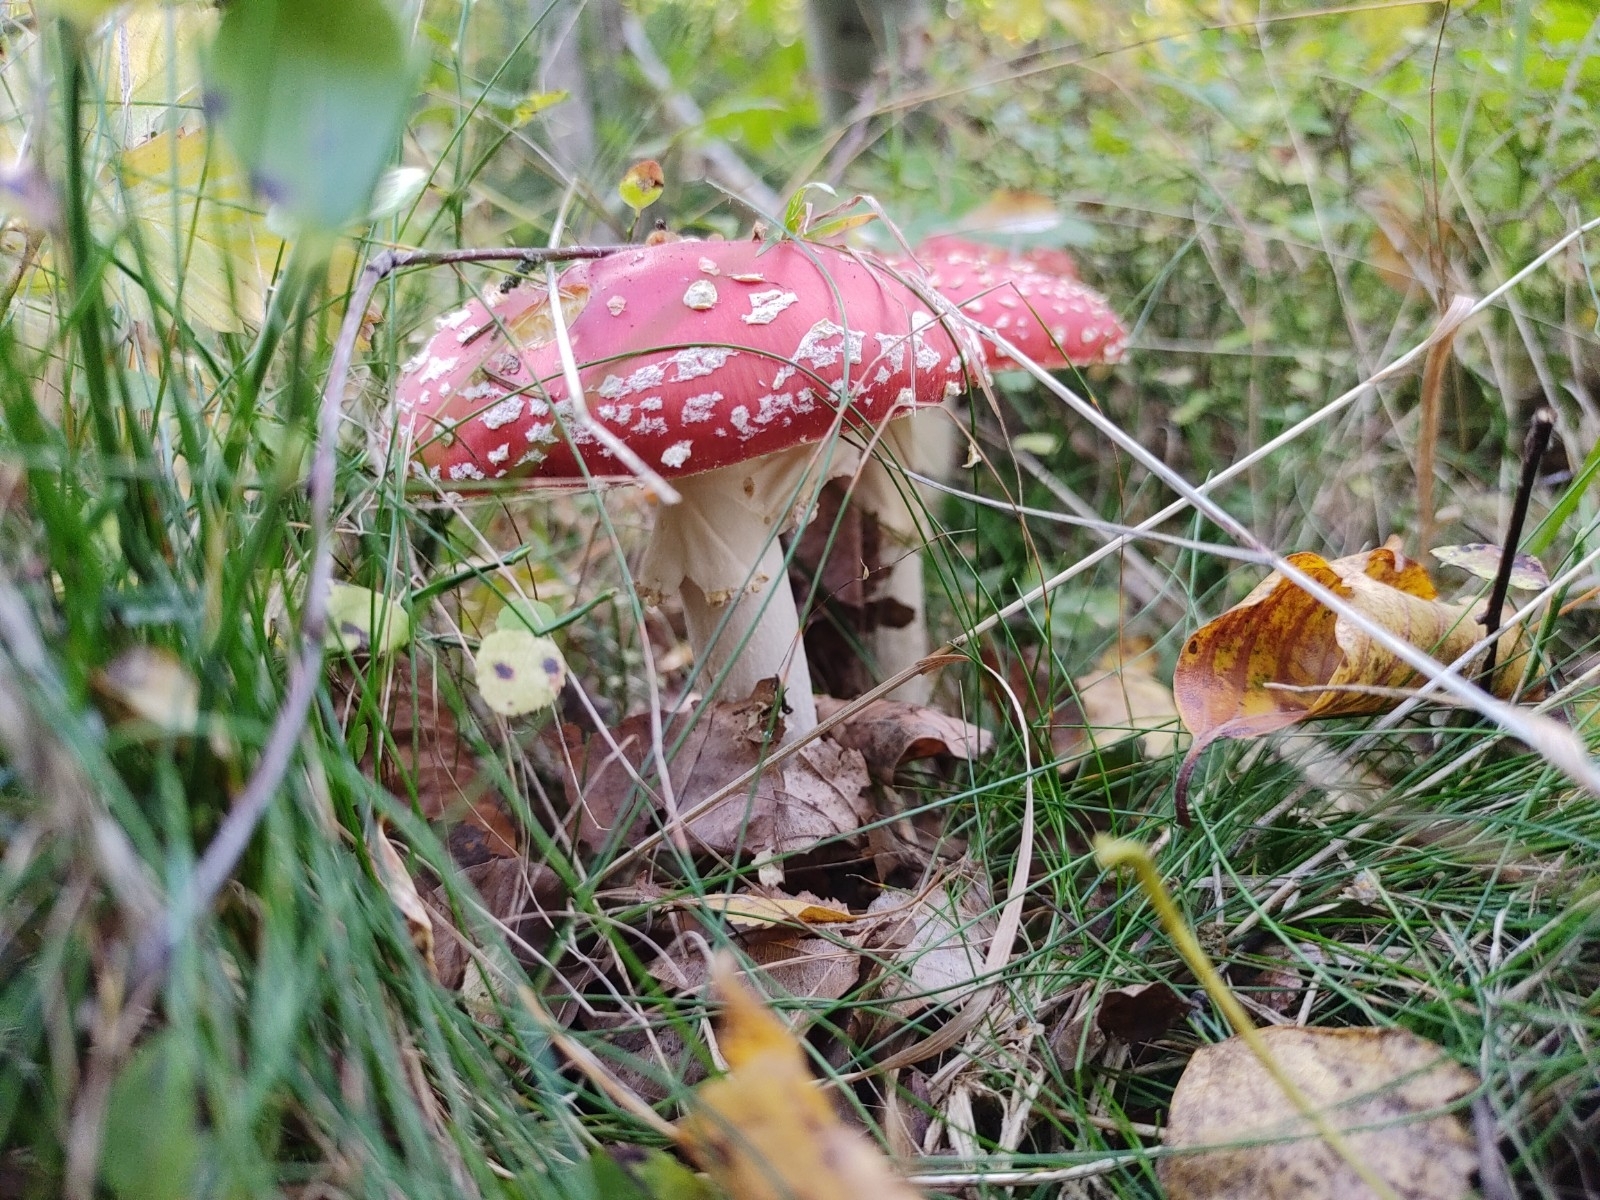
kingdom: Fungi
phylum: Basidiomycota
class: Agaricomycetes
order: Agaricales
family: Amanitaceae
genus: Amanita
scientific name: Amanita muscaria
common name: Fly agaric
